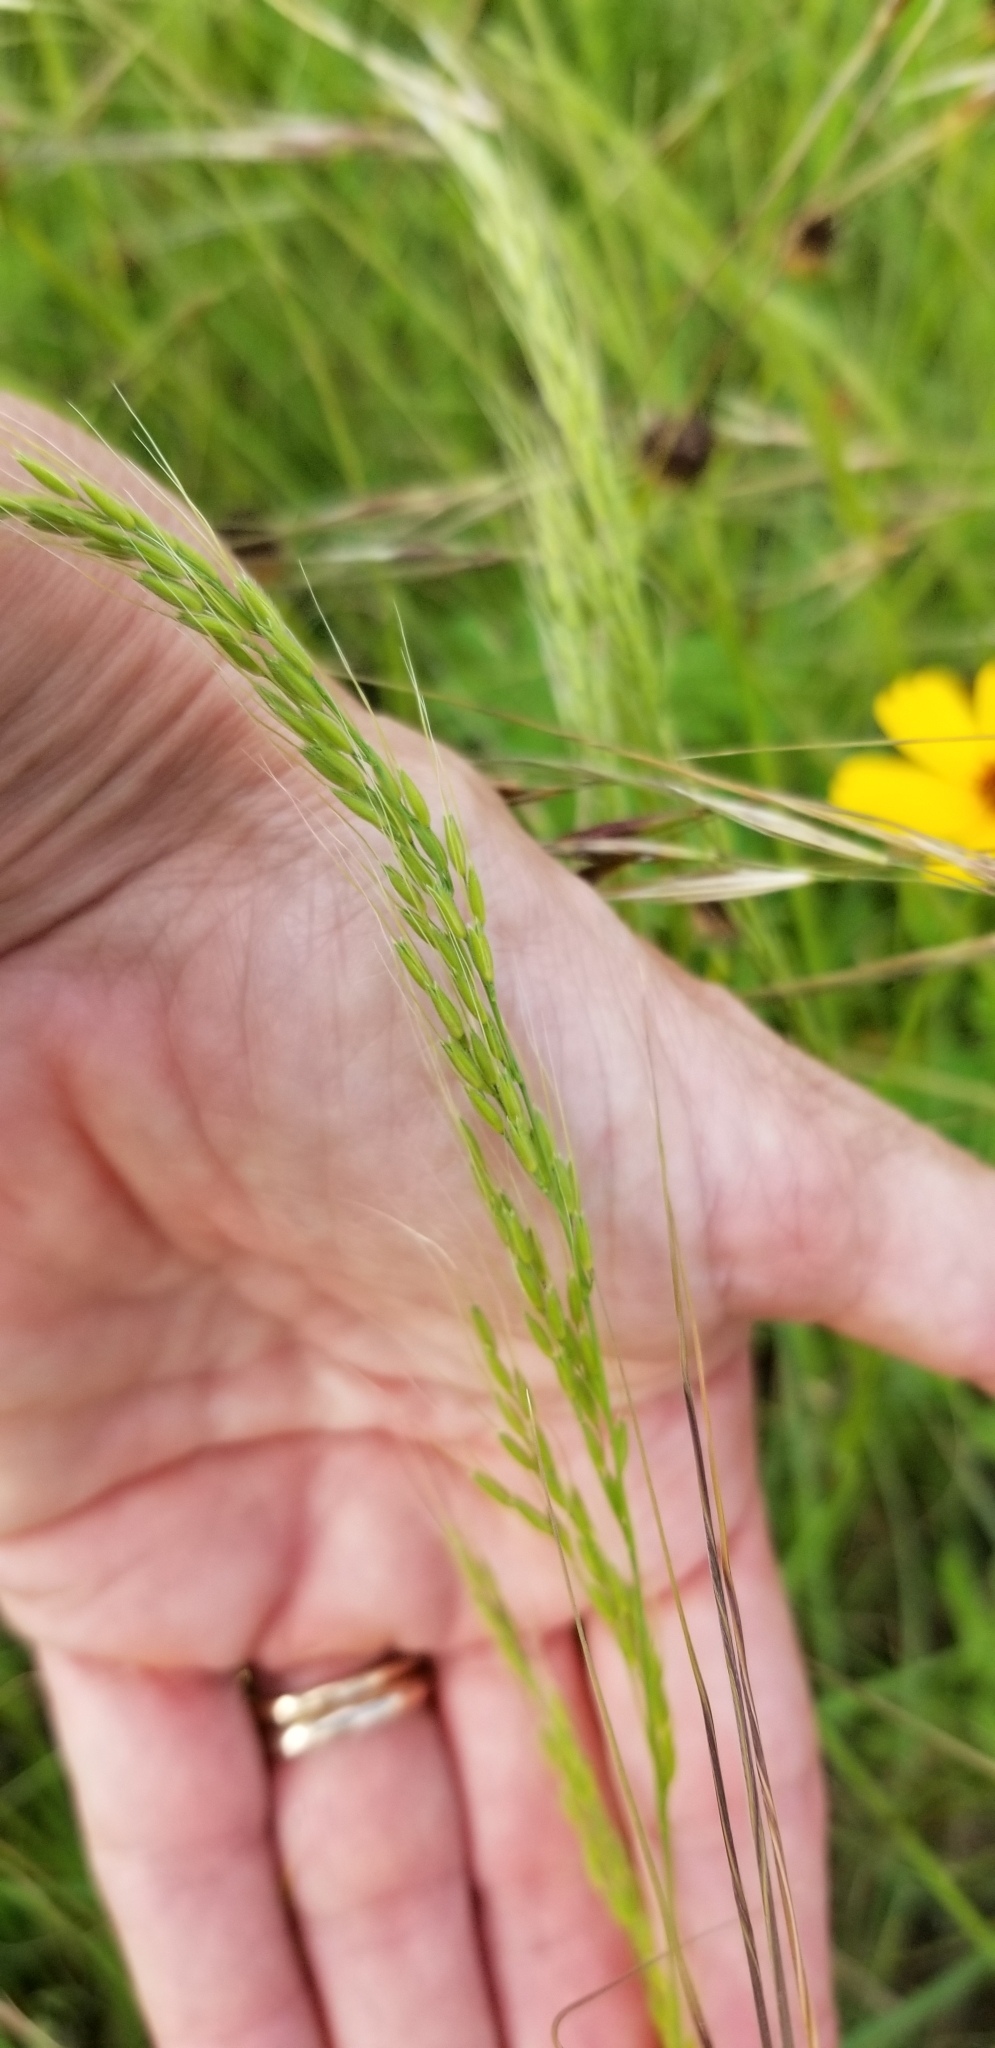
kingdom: Plantae
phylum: Tracheophyta
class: Liliopsida
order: Poales
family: Poaceae
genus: Limnodea
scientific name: Limnodea arkansana
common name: Ozark-grass
